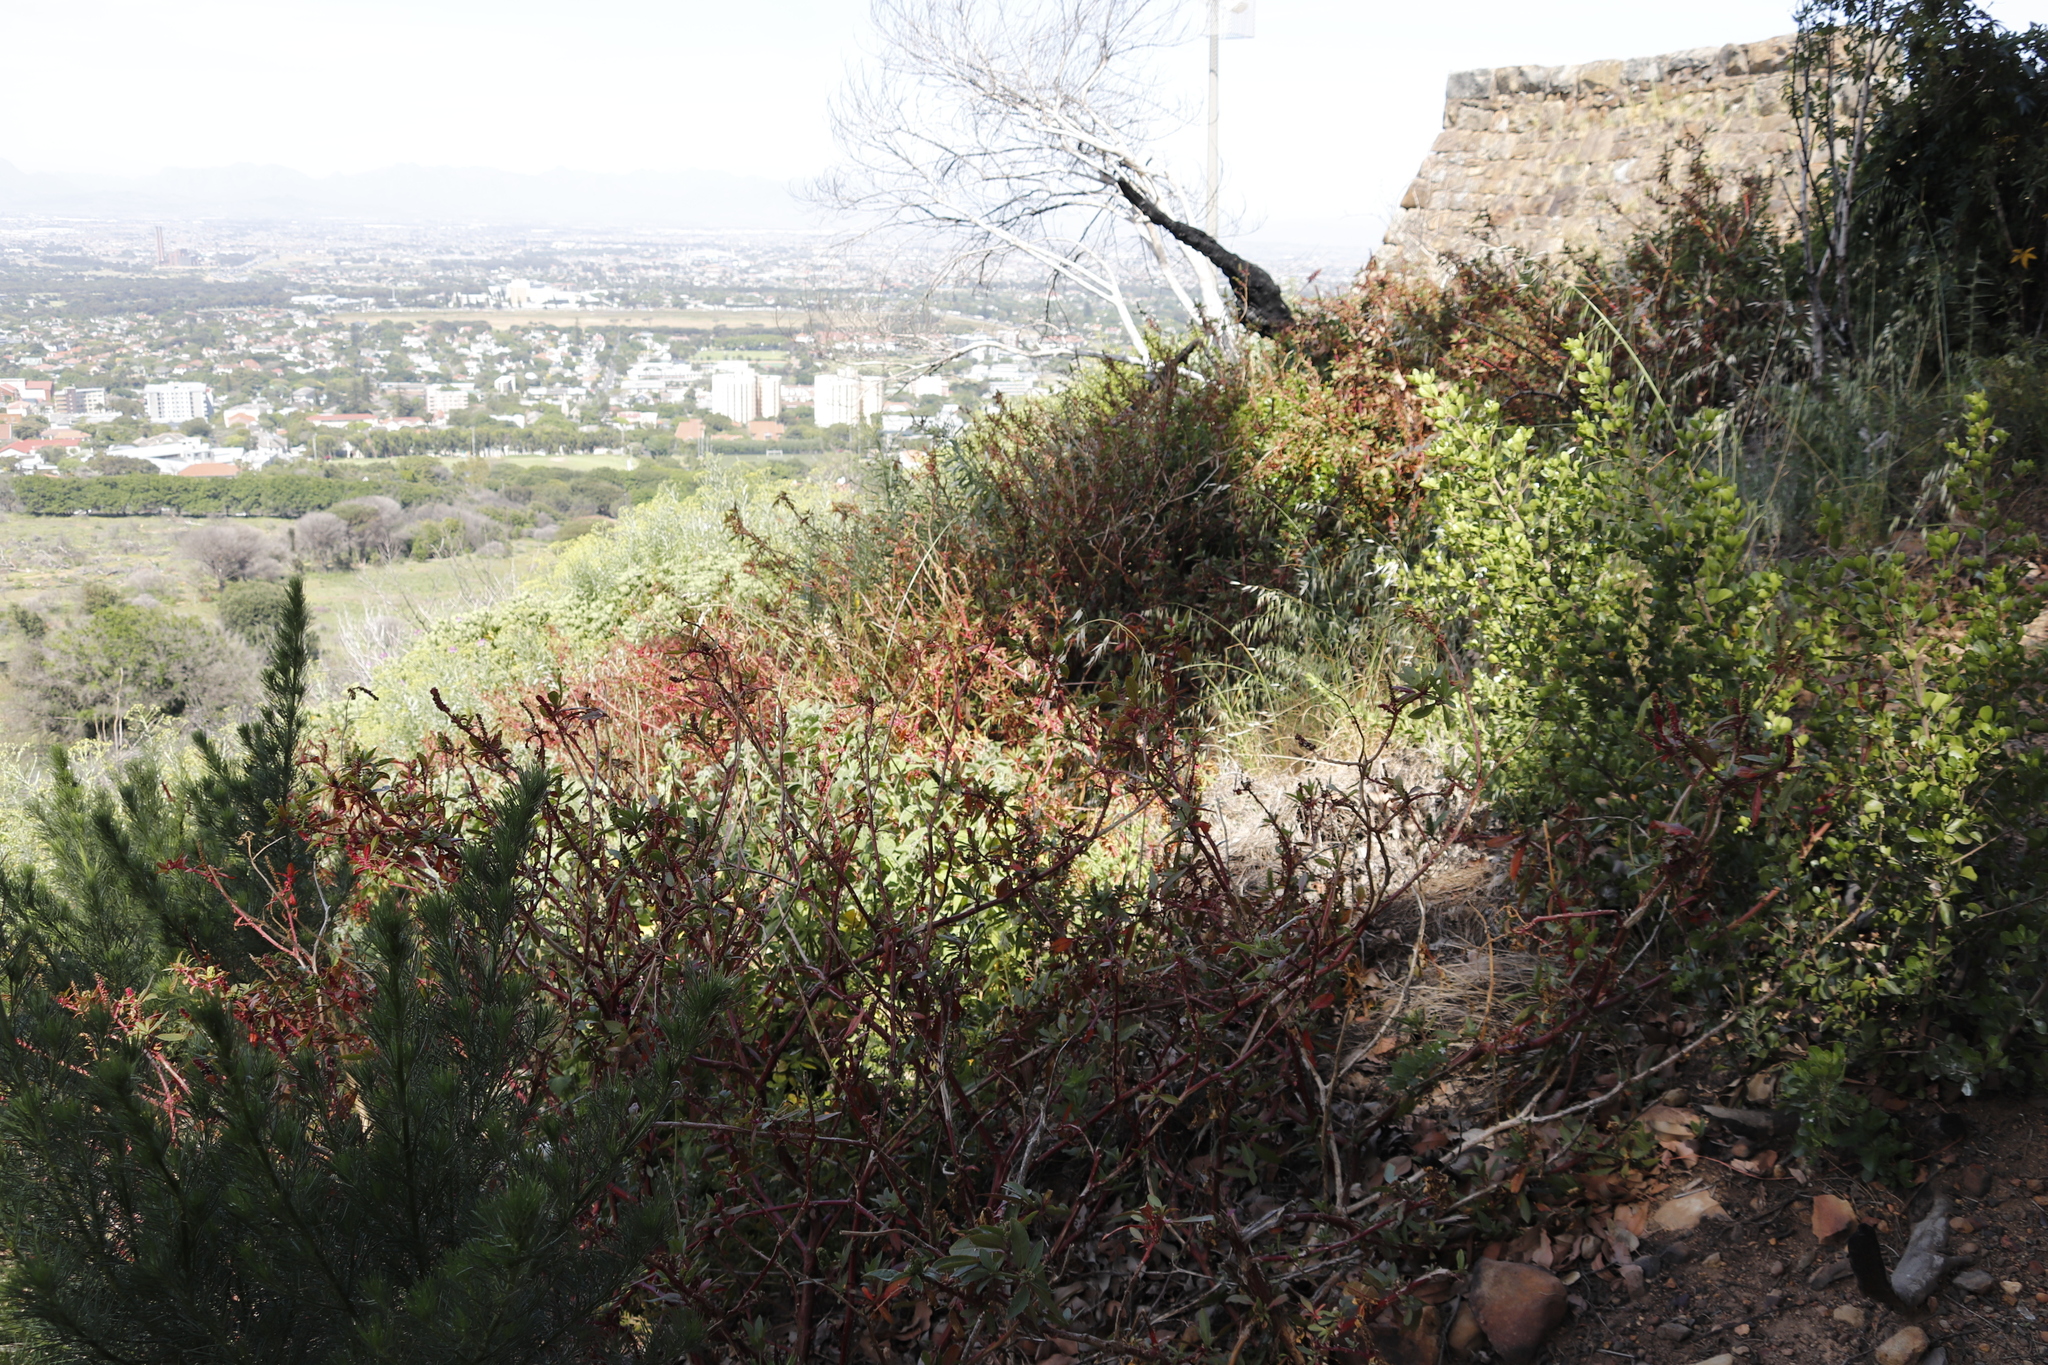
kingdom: Plantae
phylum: Tracheophyta
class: Magnoliopsida
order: Caryophyllales
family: Phytolaccaceae
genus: Phytolacca
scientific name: Phytolacca icosandra
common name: Button pokeweed
